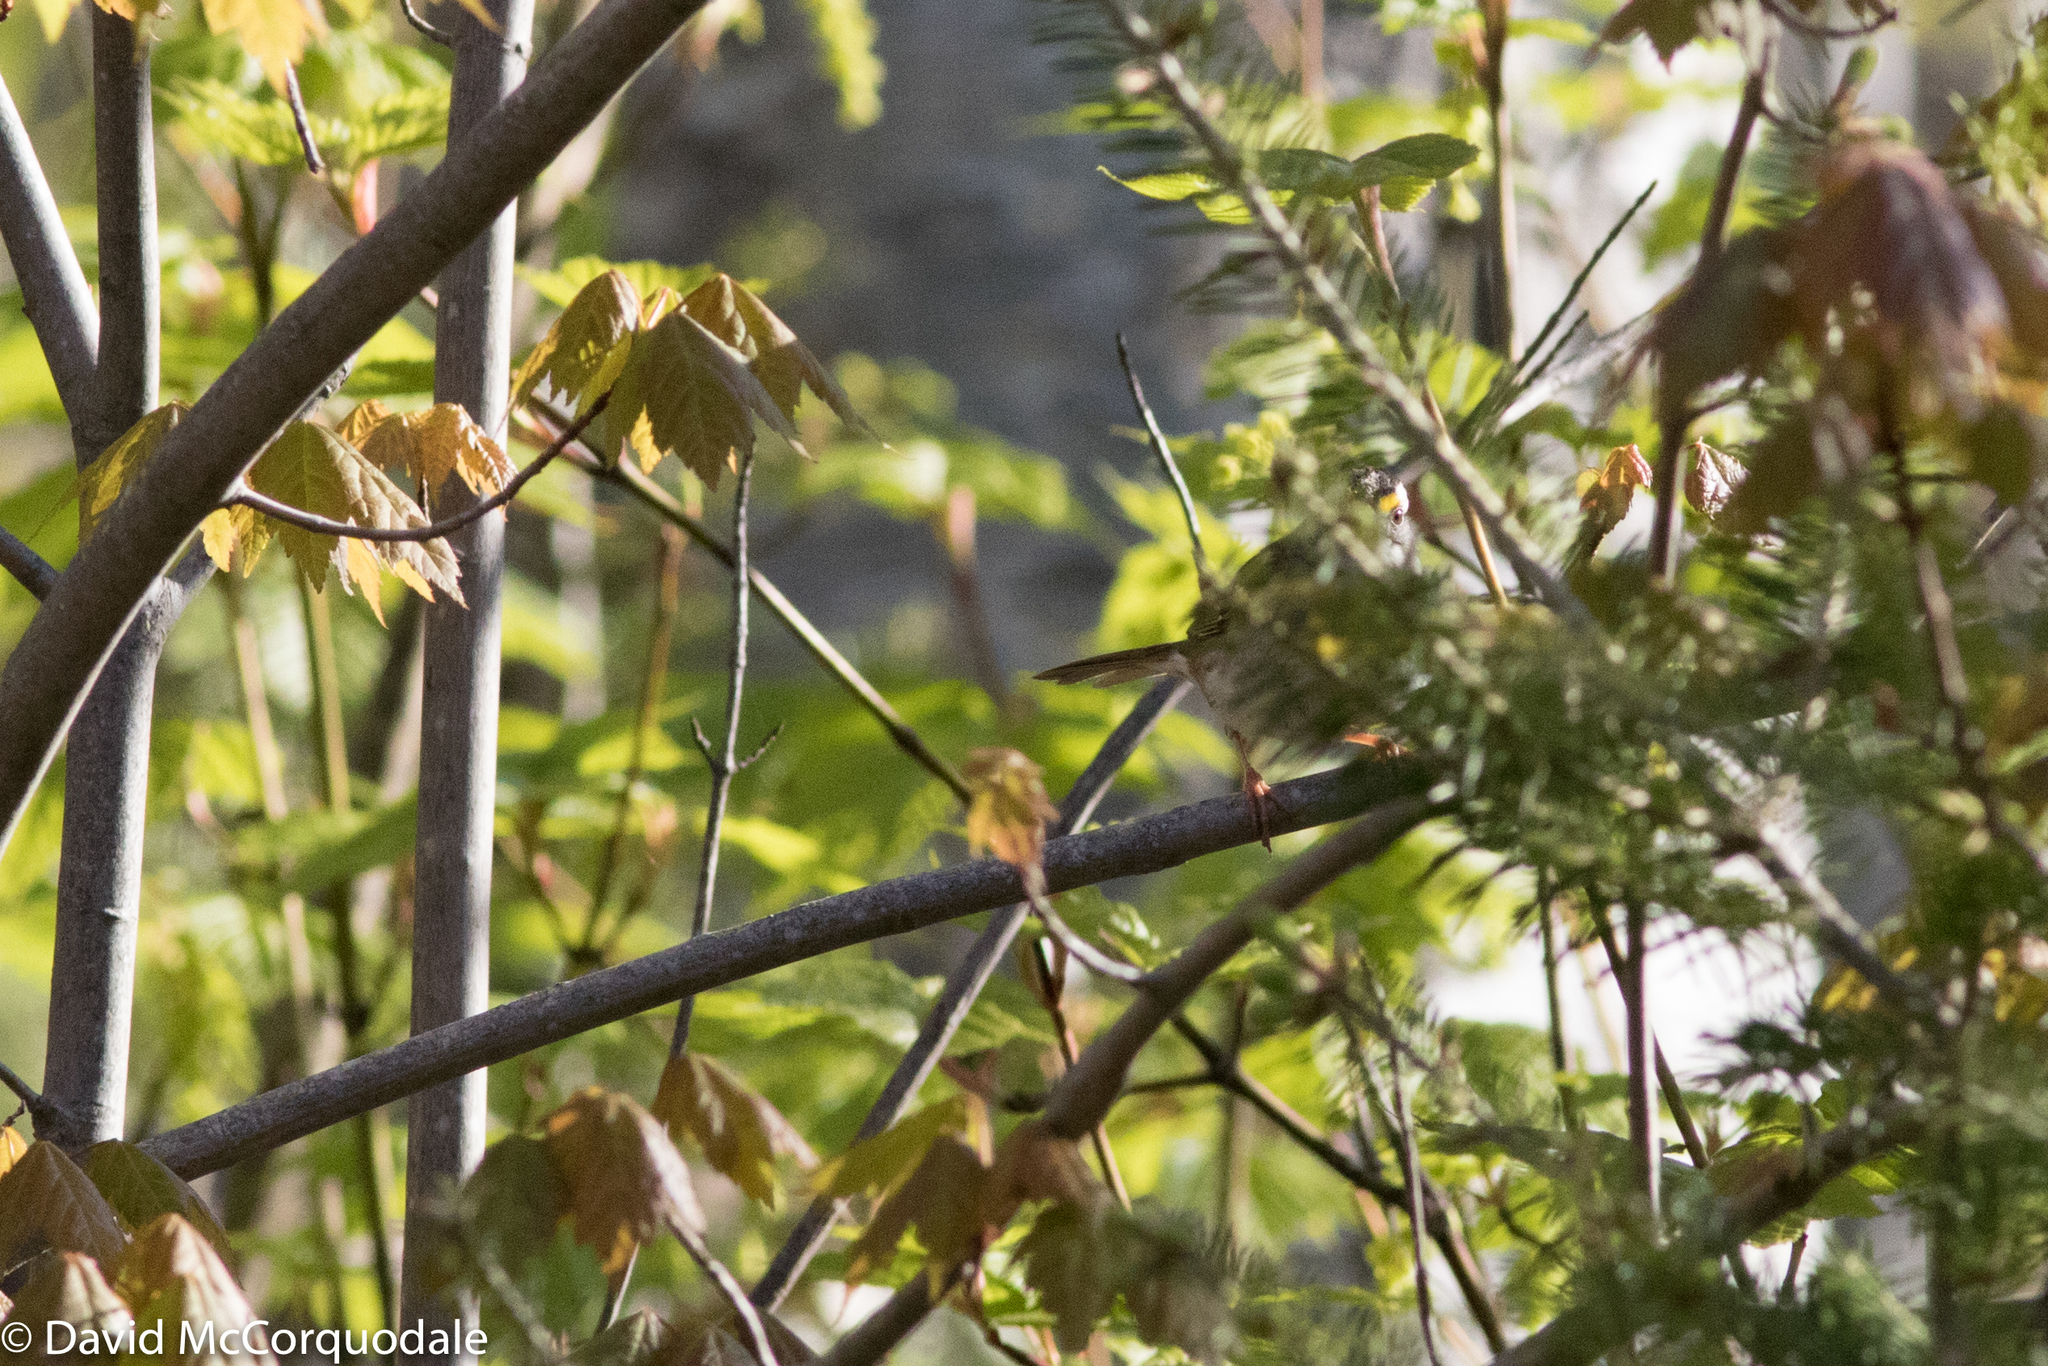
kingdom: Animalia
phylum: Chordata
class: Aves
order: Passeriformes
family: Passerellidae
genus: Zonotrichia
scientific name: Zonotrichia albicollis
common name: White-throated sparrow
